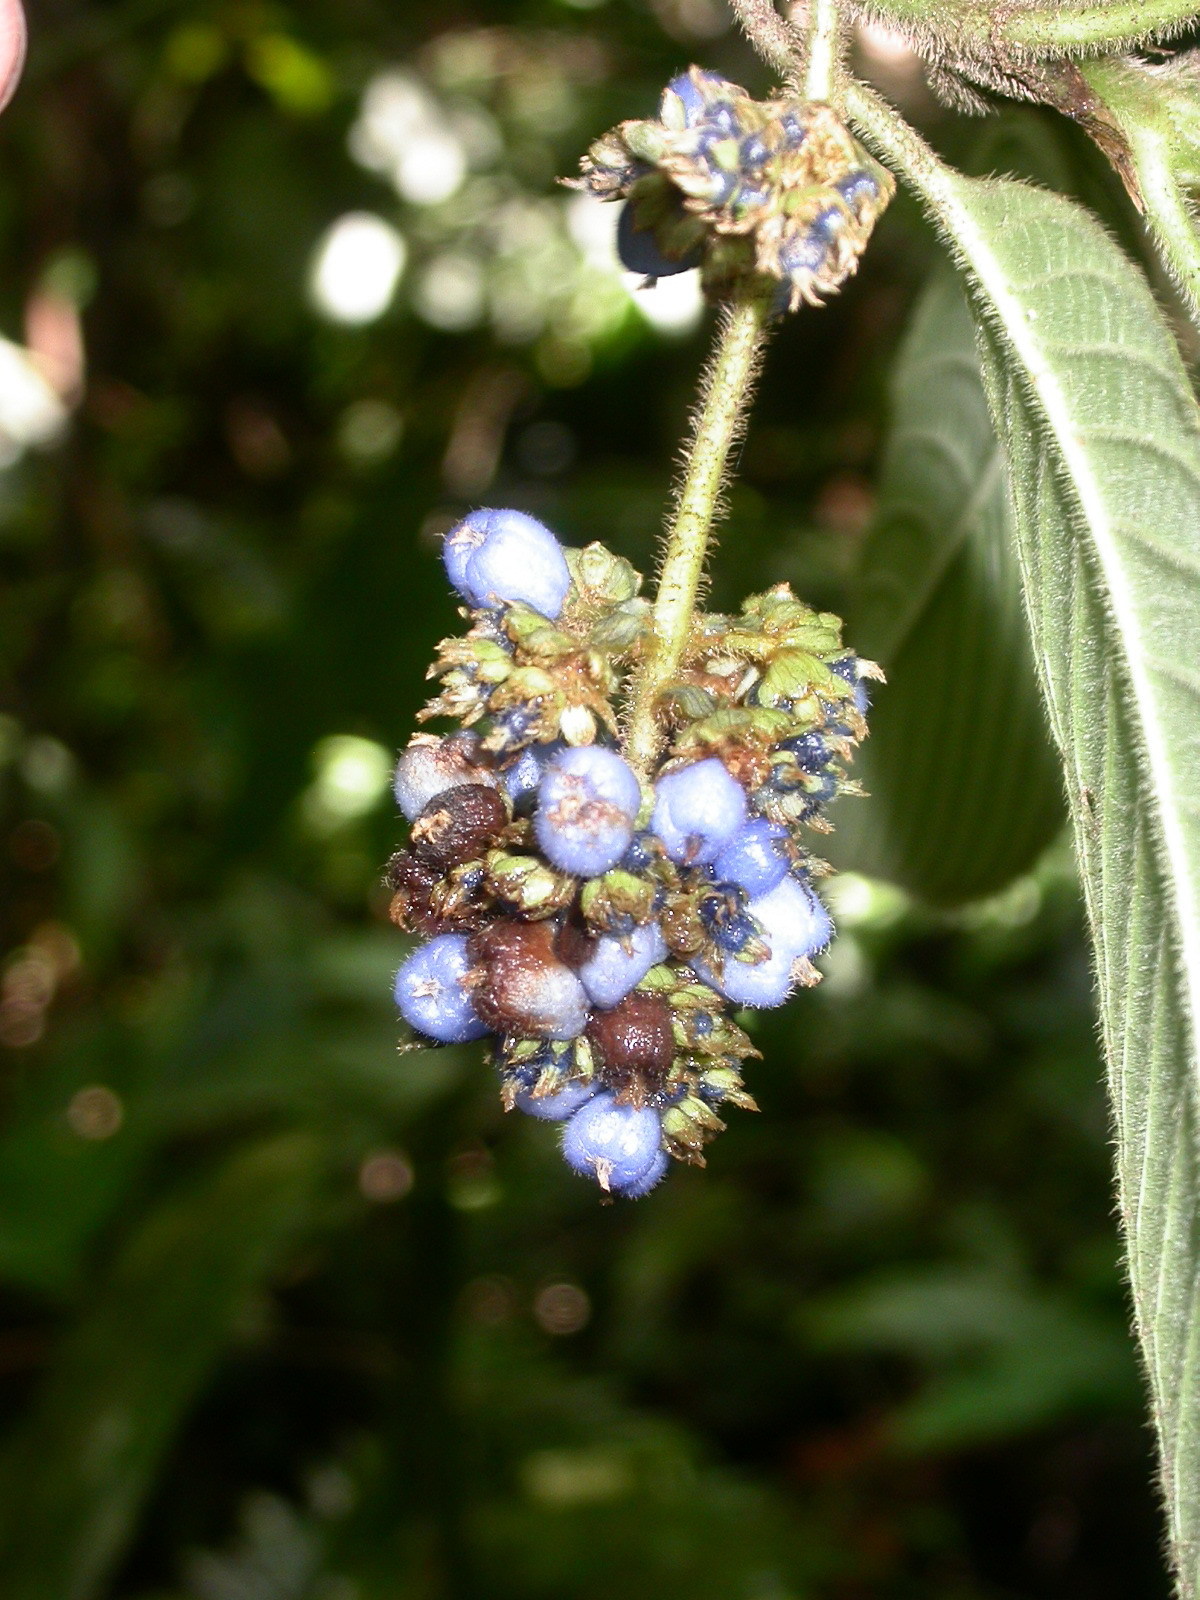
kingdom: Plantae
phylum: Tracheophyta
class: Magnoliopsida
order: Gentianales
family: Rubiaceae
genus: Palicourea
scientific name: Palicourea pilosa
